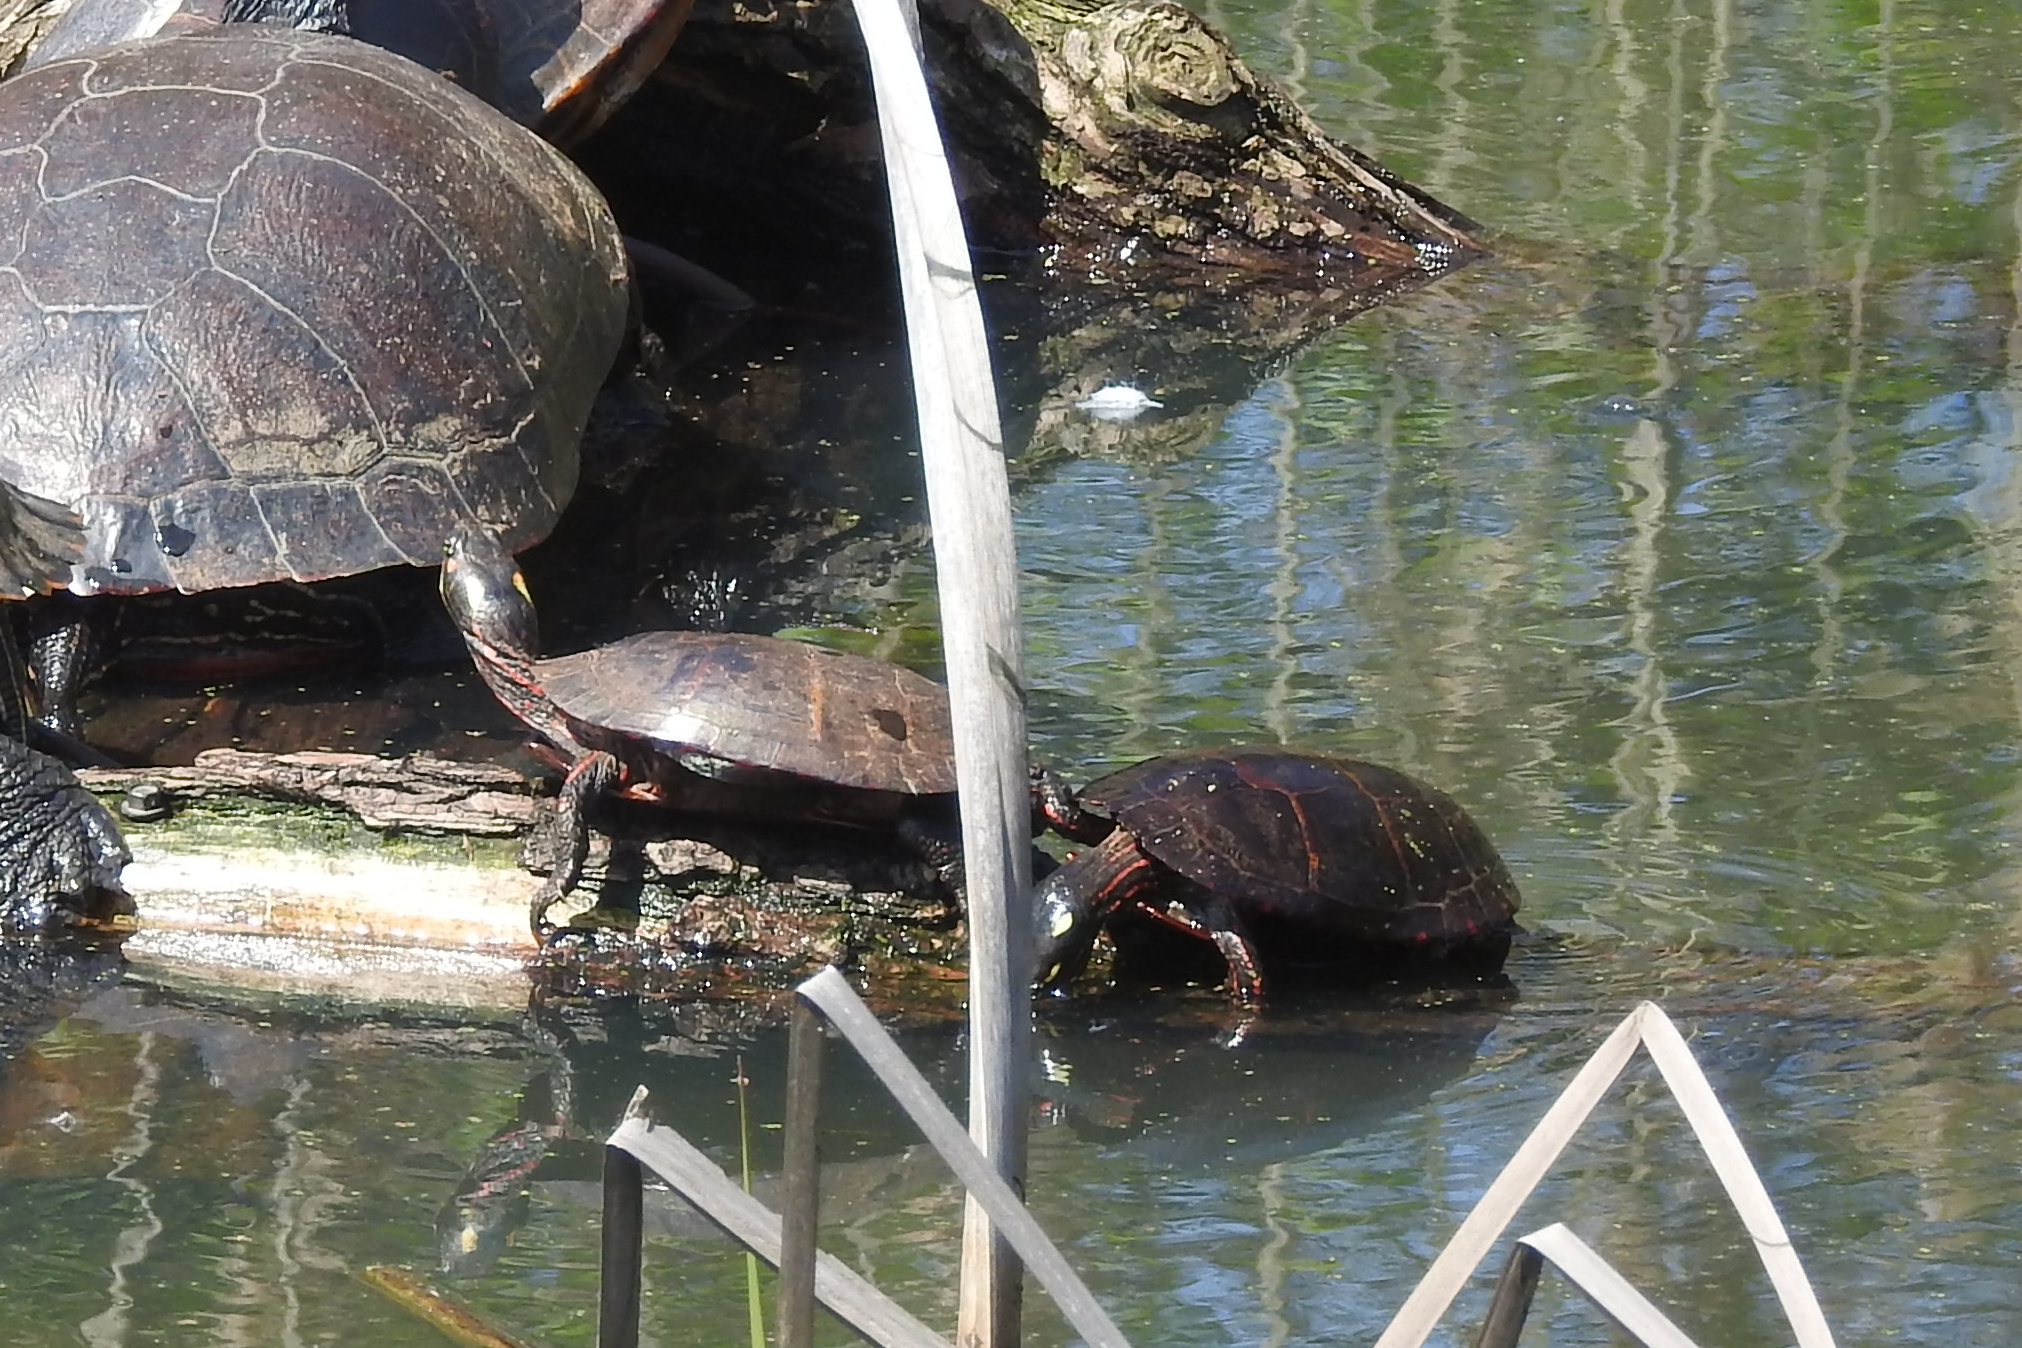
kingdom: Animalia
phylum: Chordata
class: Testudines
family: Emydidae
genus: Chrysemys
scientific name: Chrysemys picta
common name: Painted turtle
